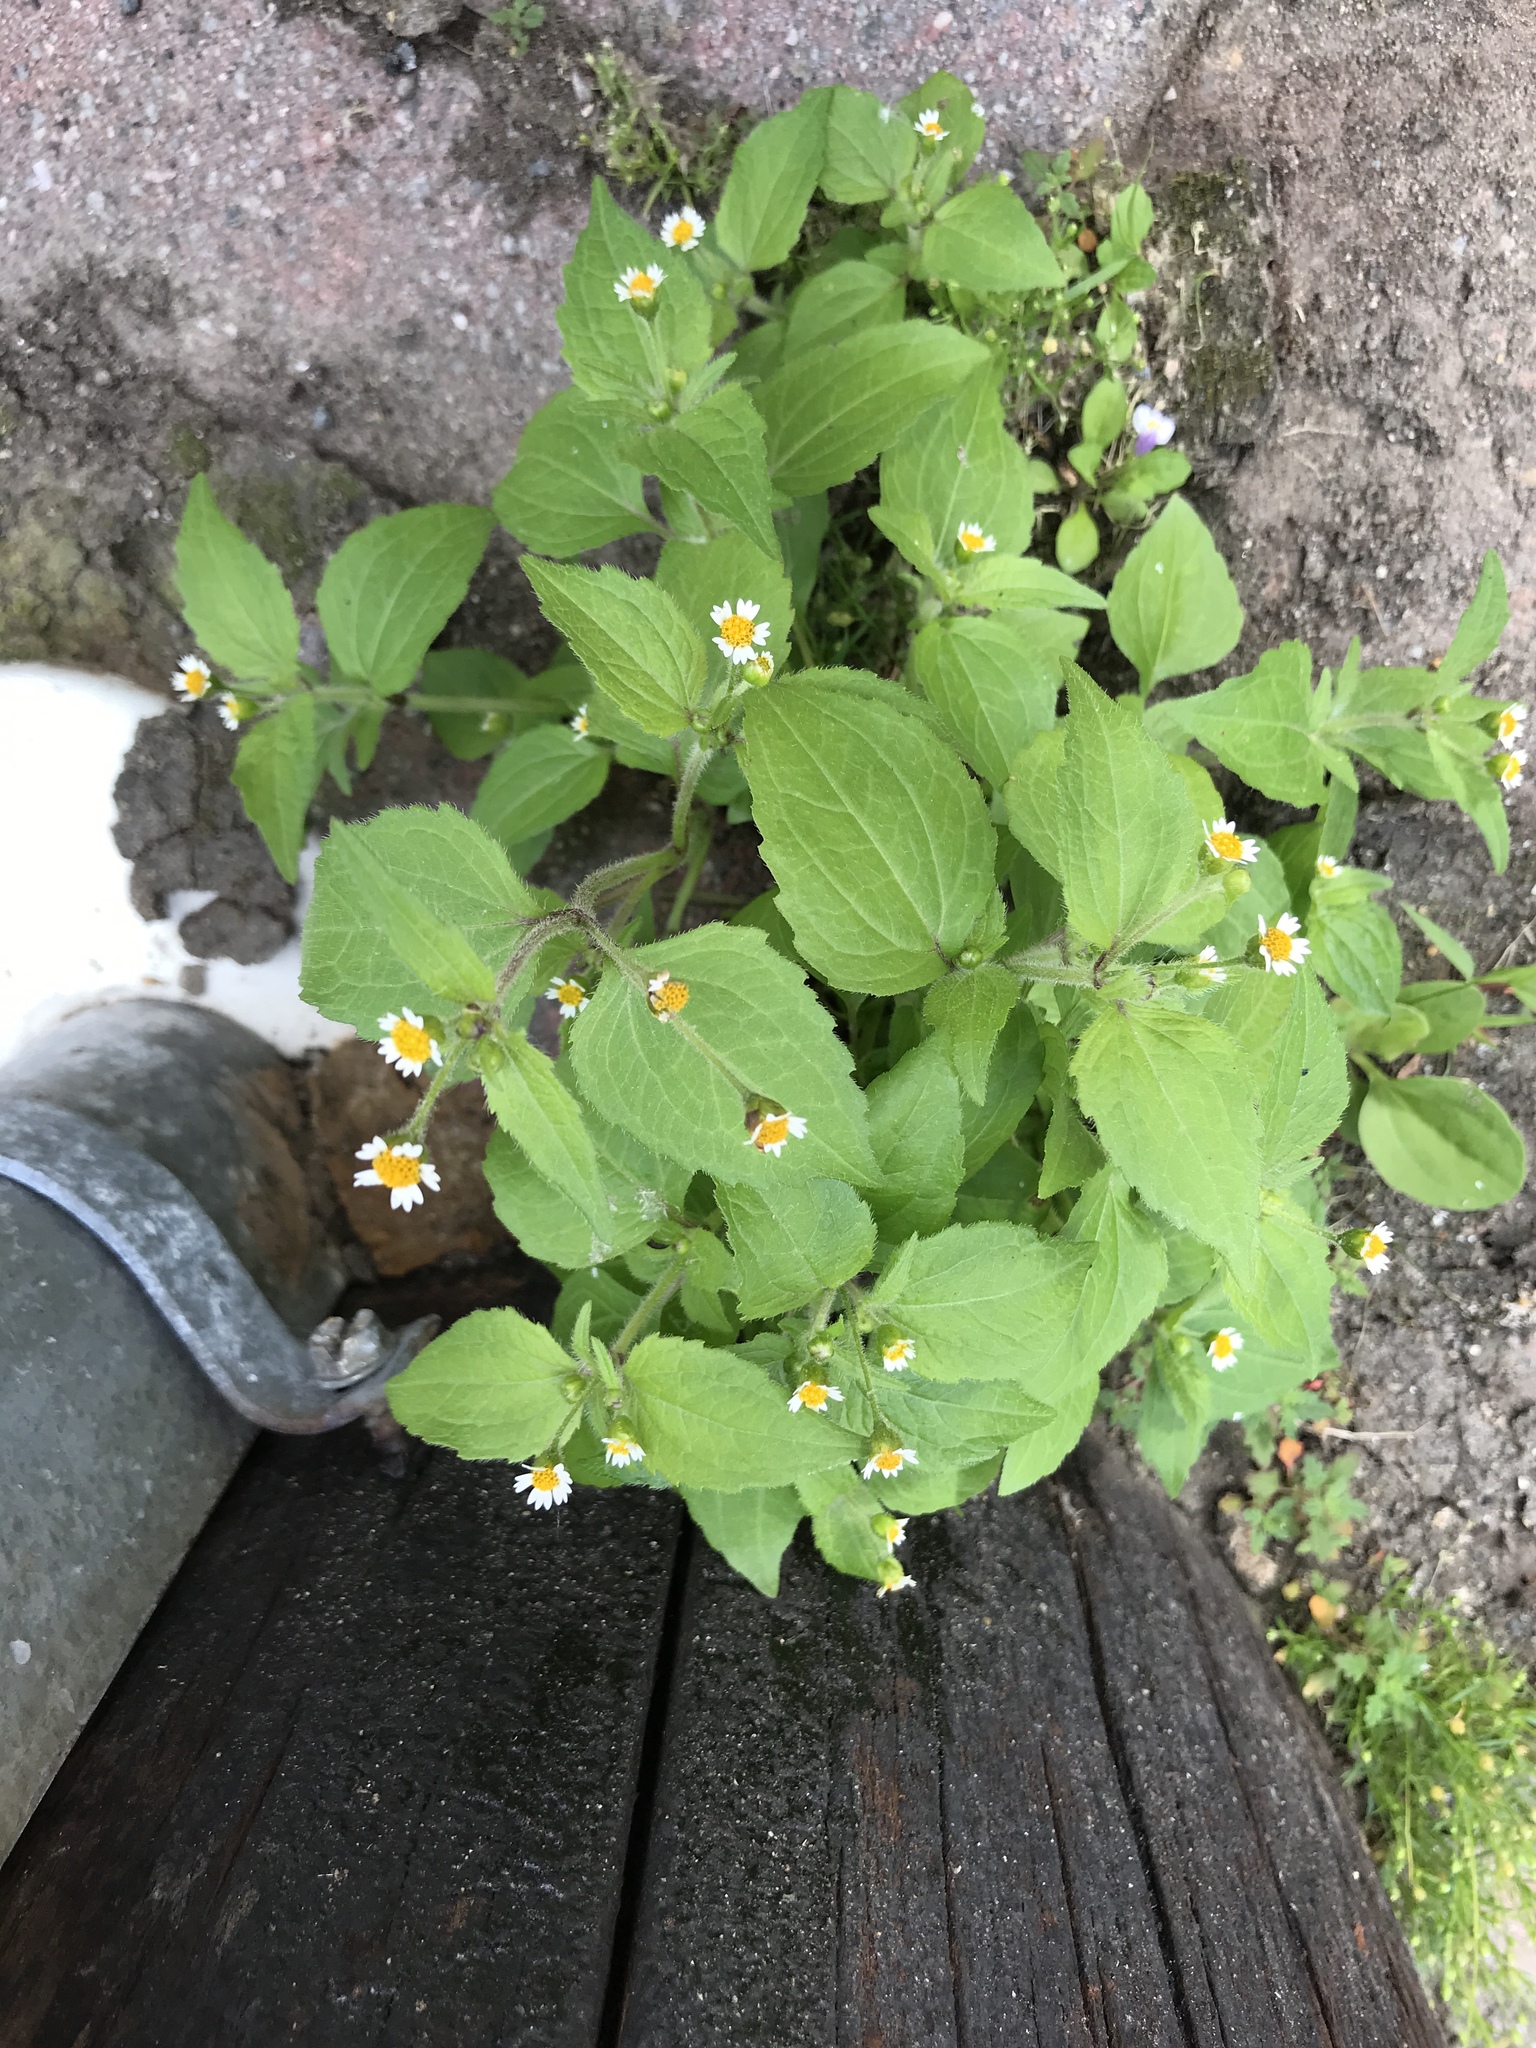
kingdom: Plantae
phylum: Tracheophyta
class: Magnoliopsida
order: Asterales
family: Asteraceae
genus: Galinsoga
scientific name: Galinsoga quadriradiata
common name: Shaggy soldier
